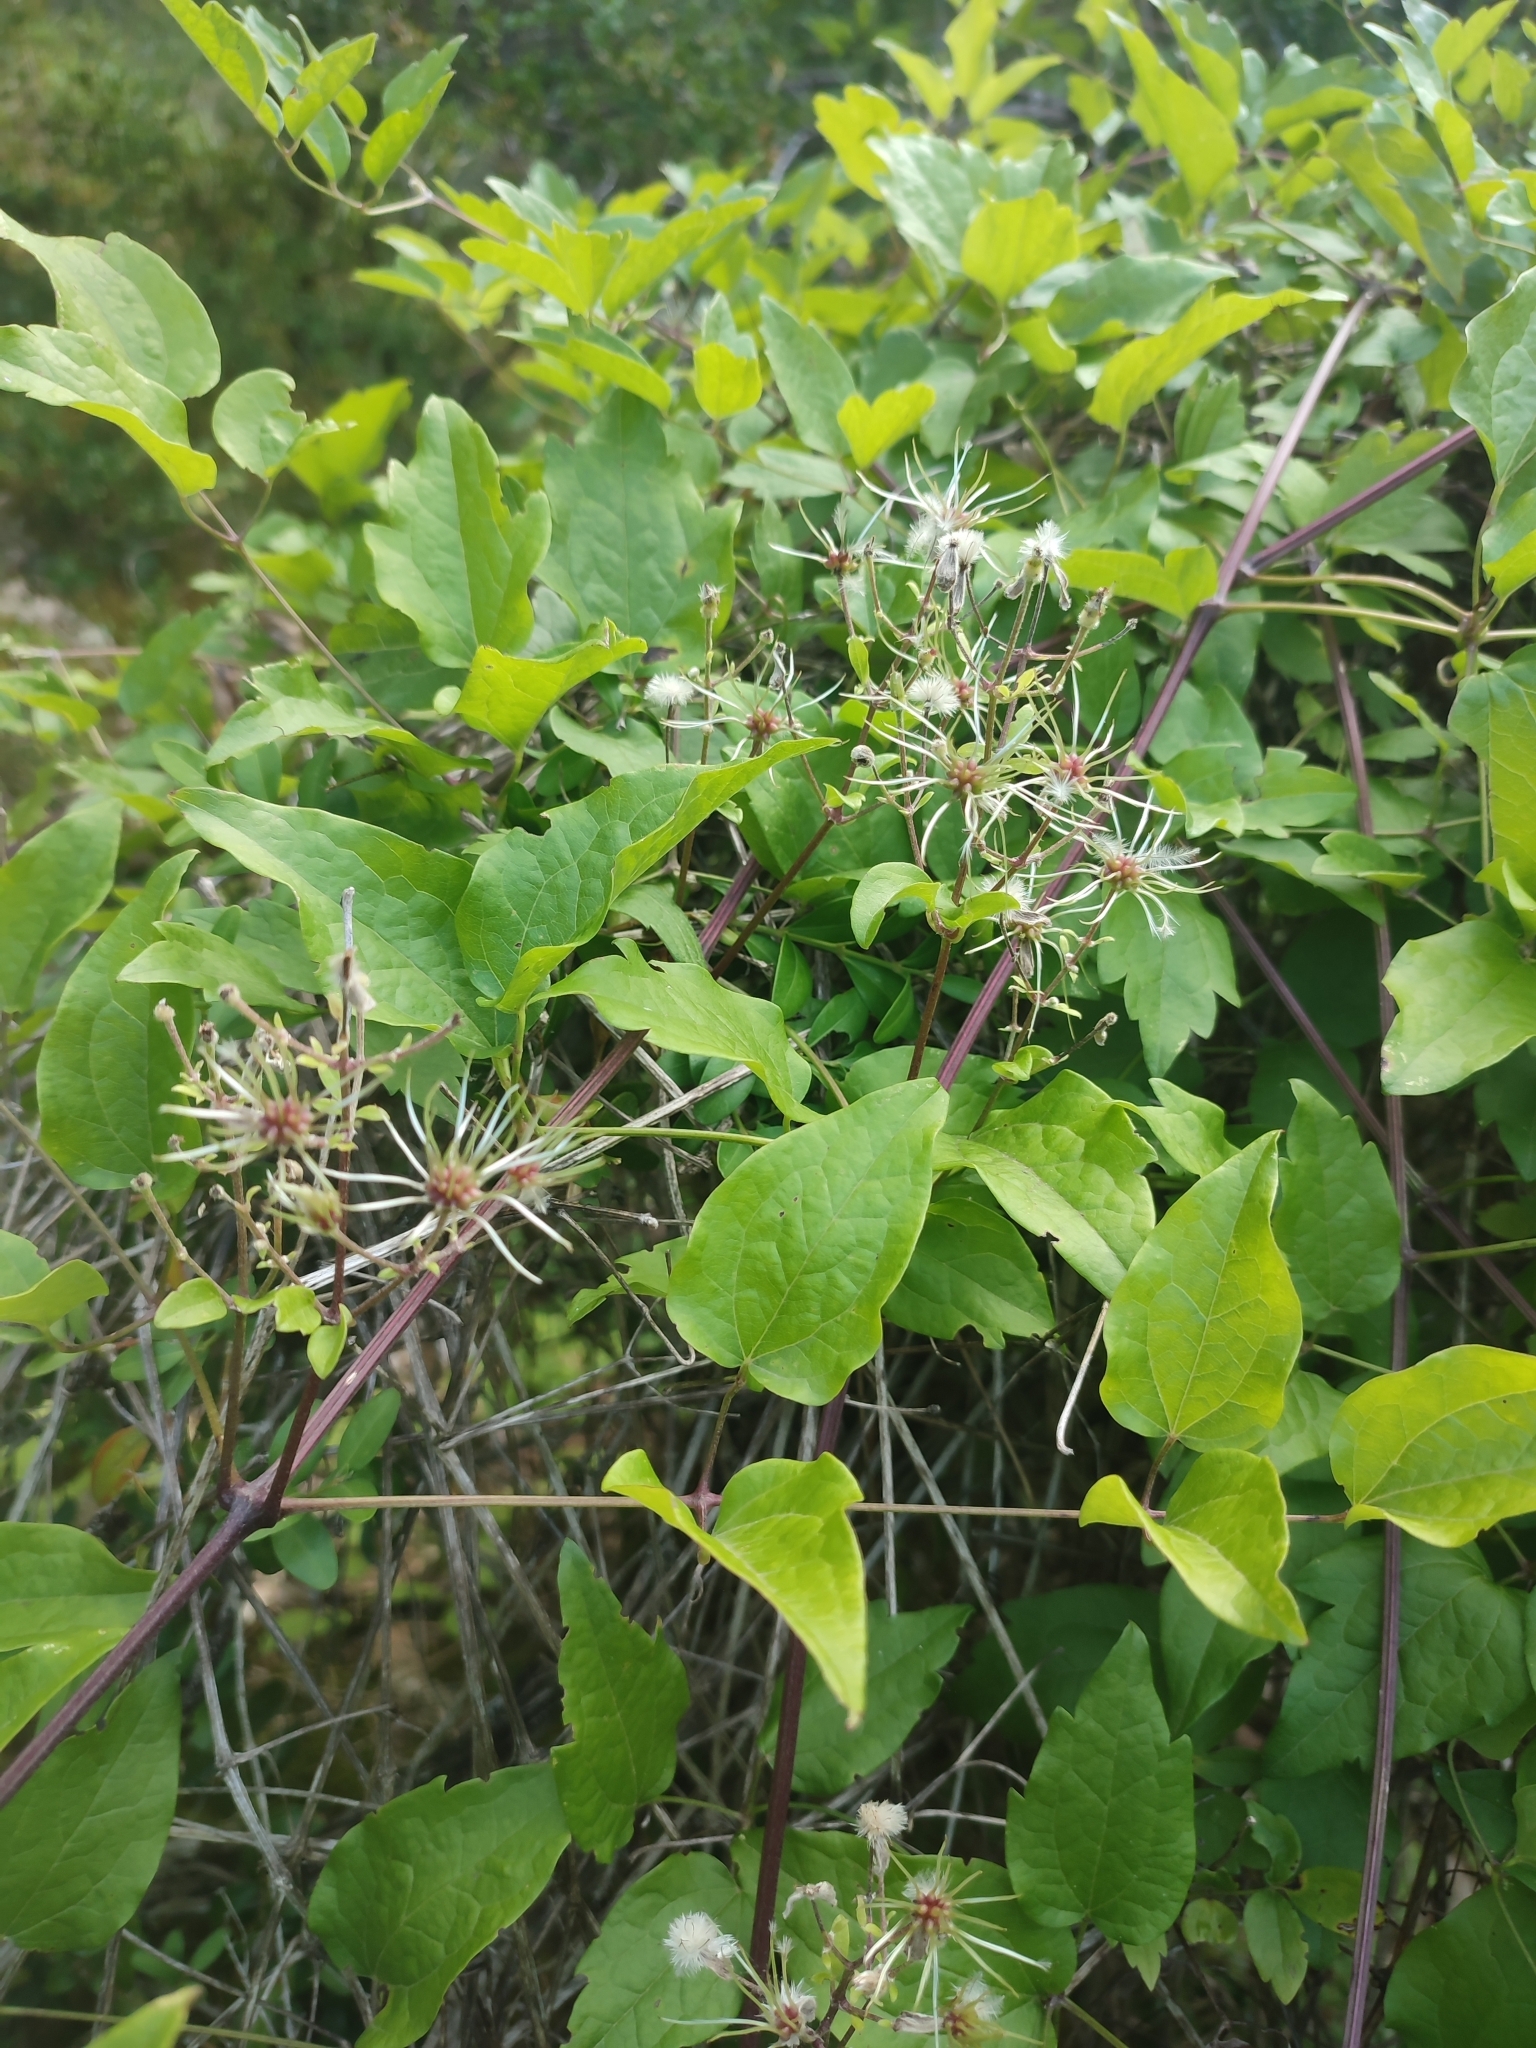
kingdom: Plantae
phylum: Tracheophyta
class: Magnoliopsida
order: Ranunculales
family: Ranunculaceae
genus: Clematis
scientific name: Clematis vitalba
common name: Evergreen clematis
